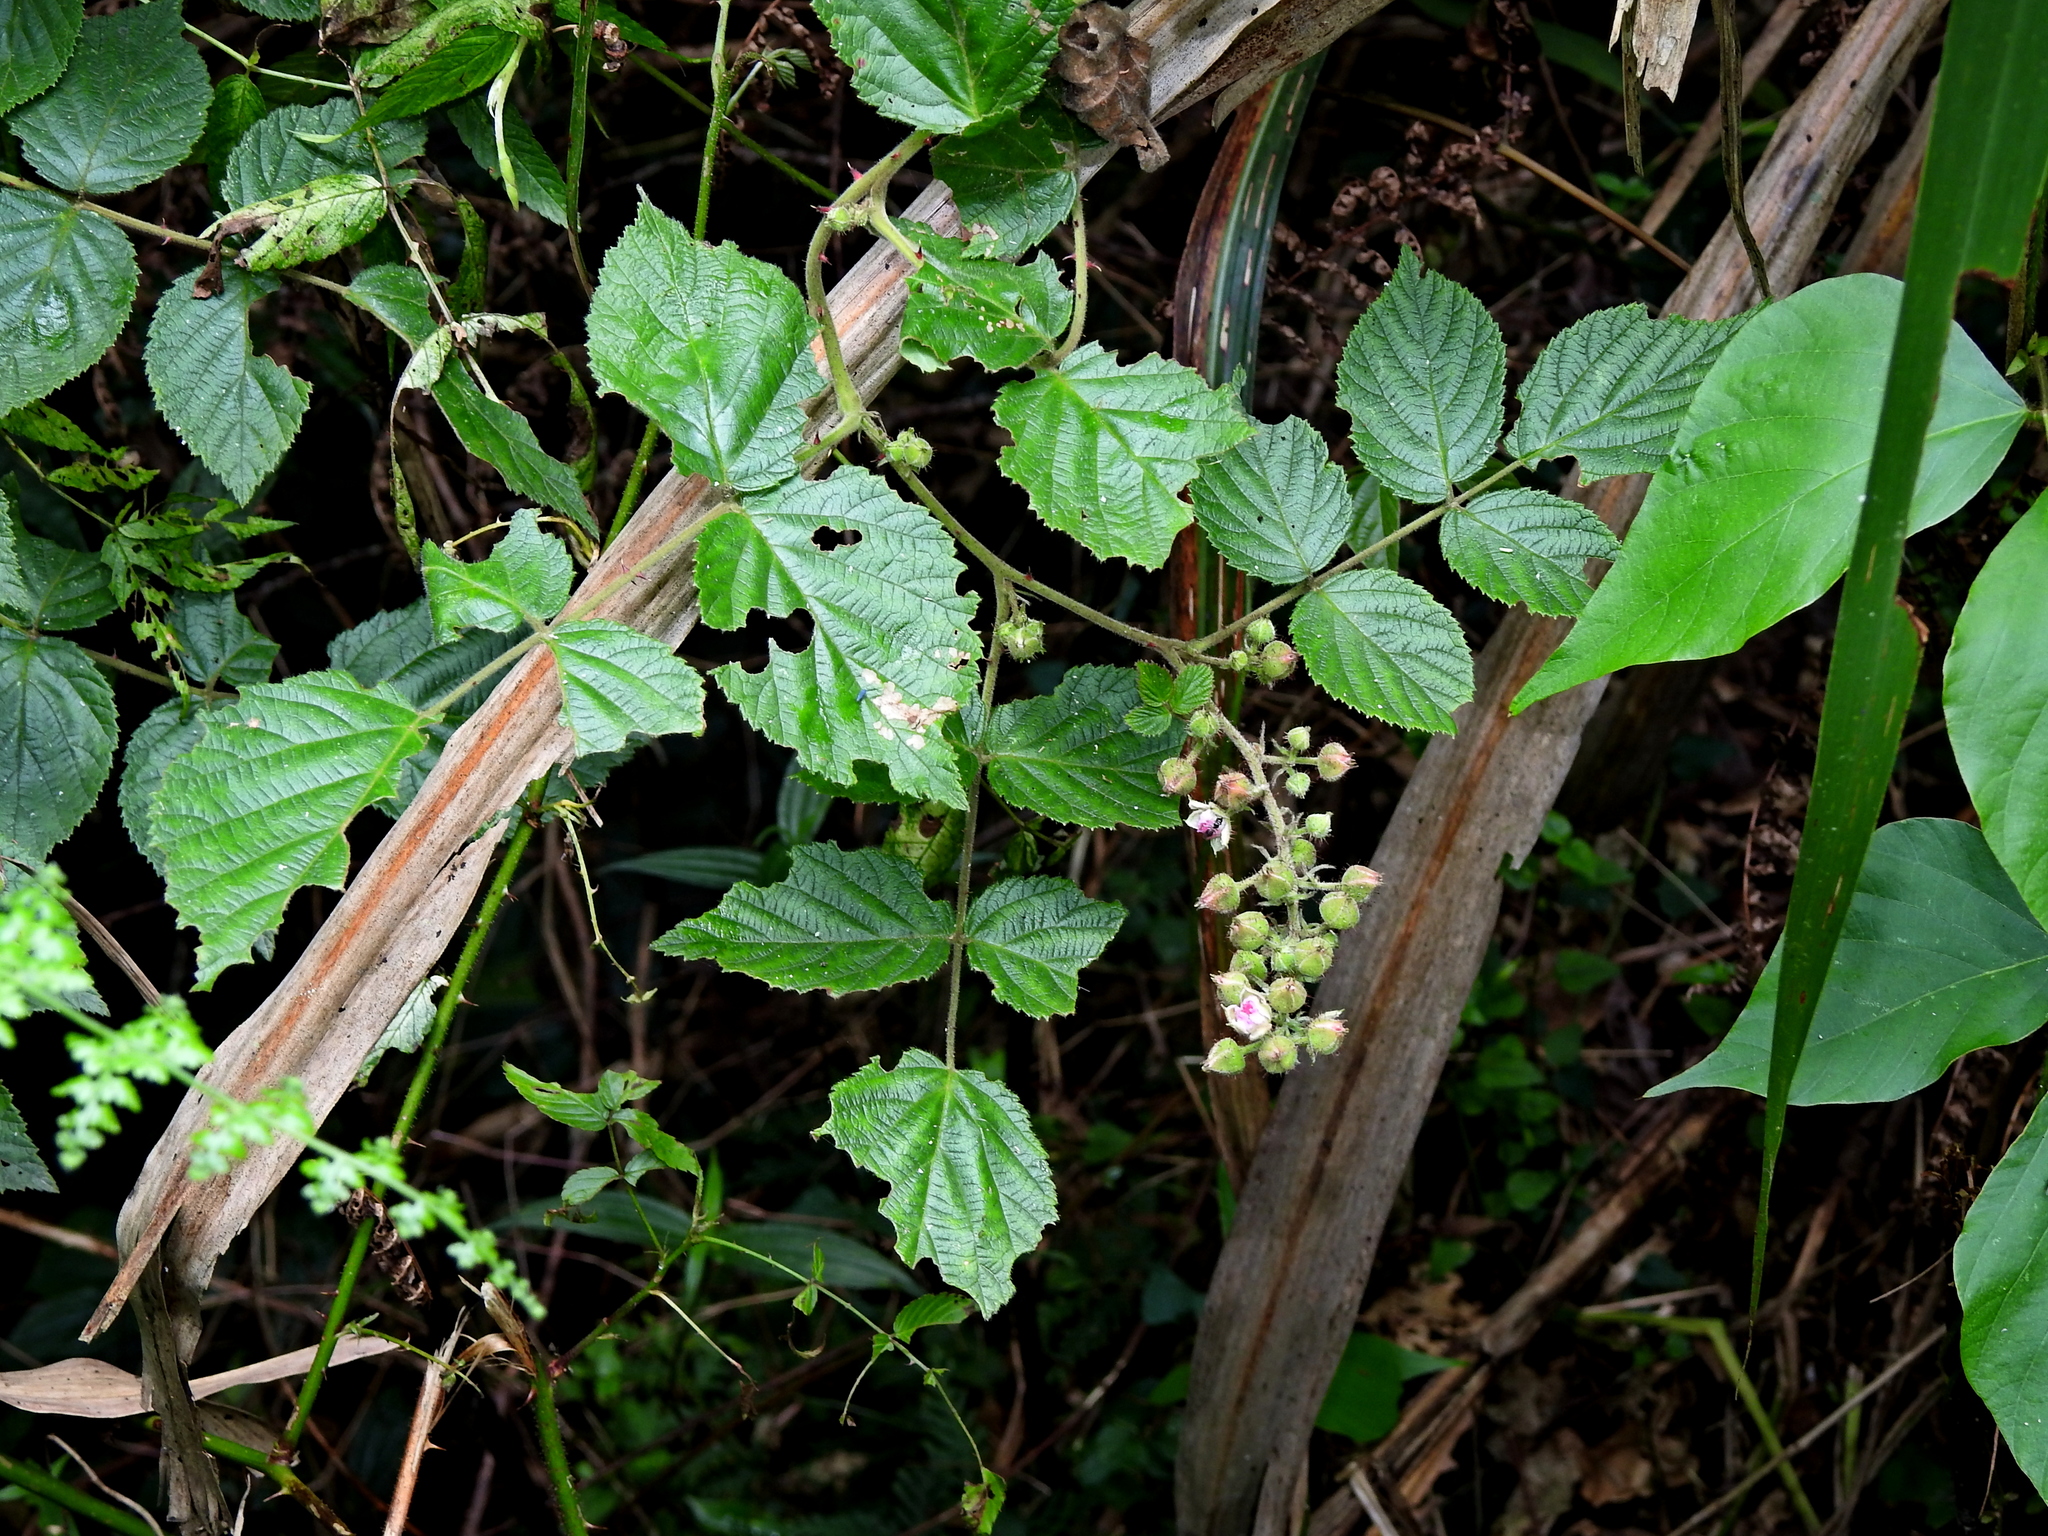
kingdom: Plantae
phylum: Tracheophyta
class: Magnoliopsida
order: Rosales
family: Rosaceae
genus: Rubus
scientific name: Rubus parviaraliifolius
